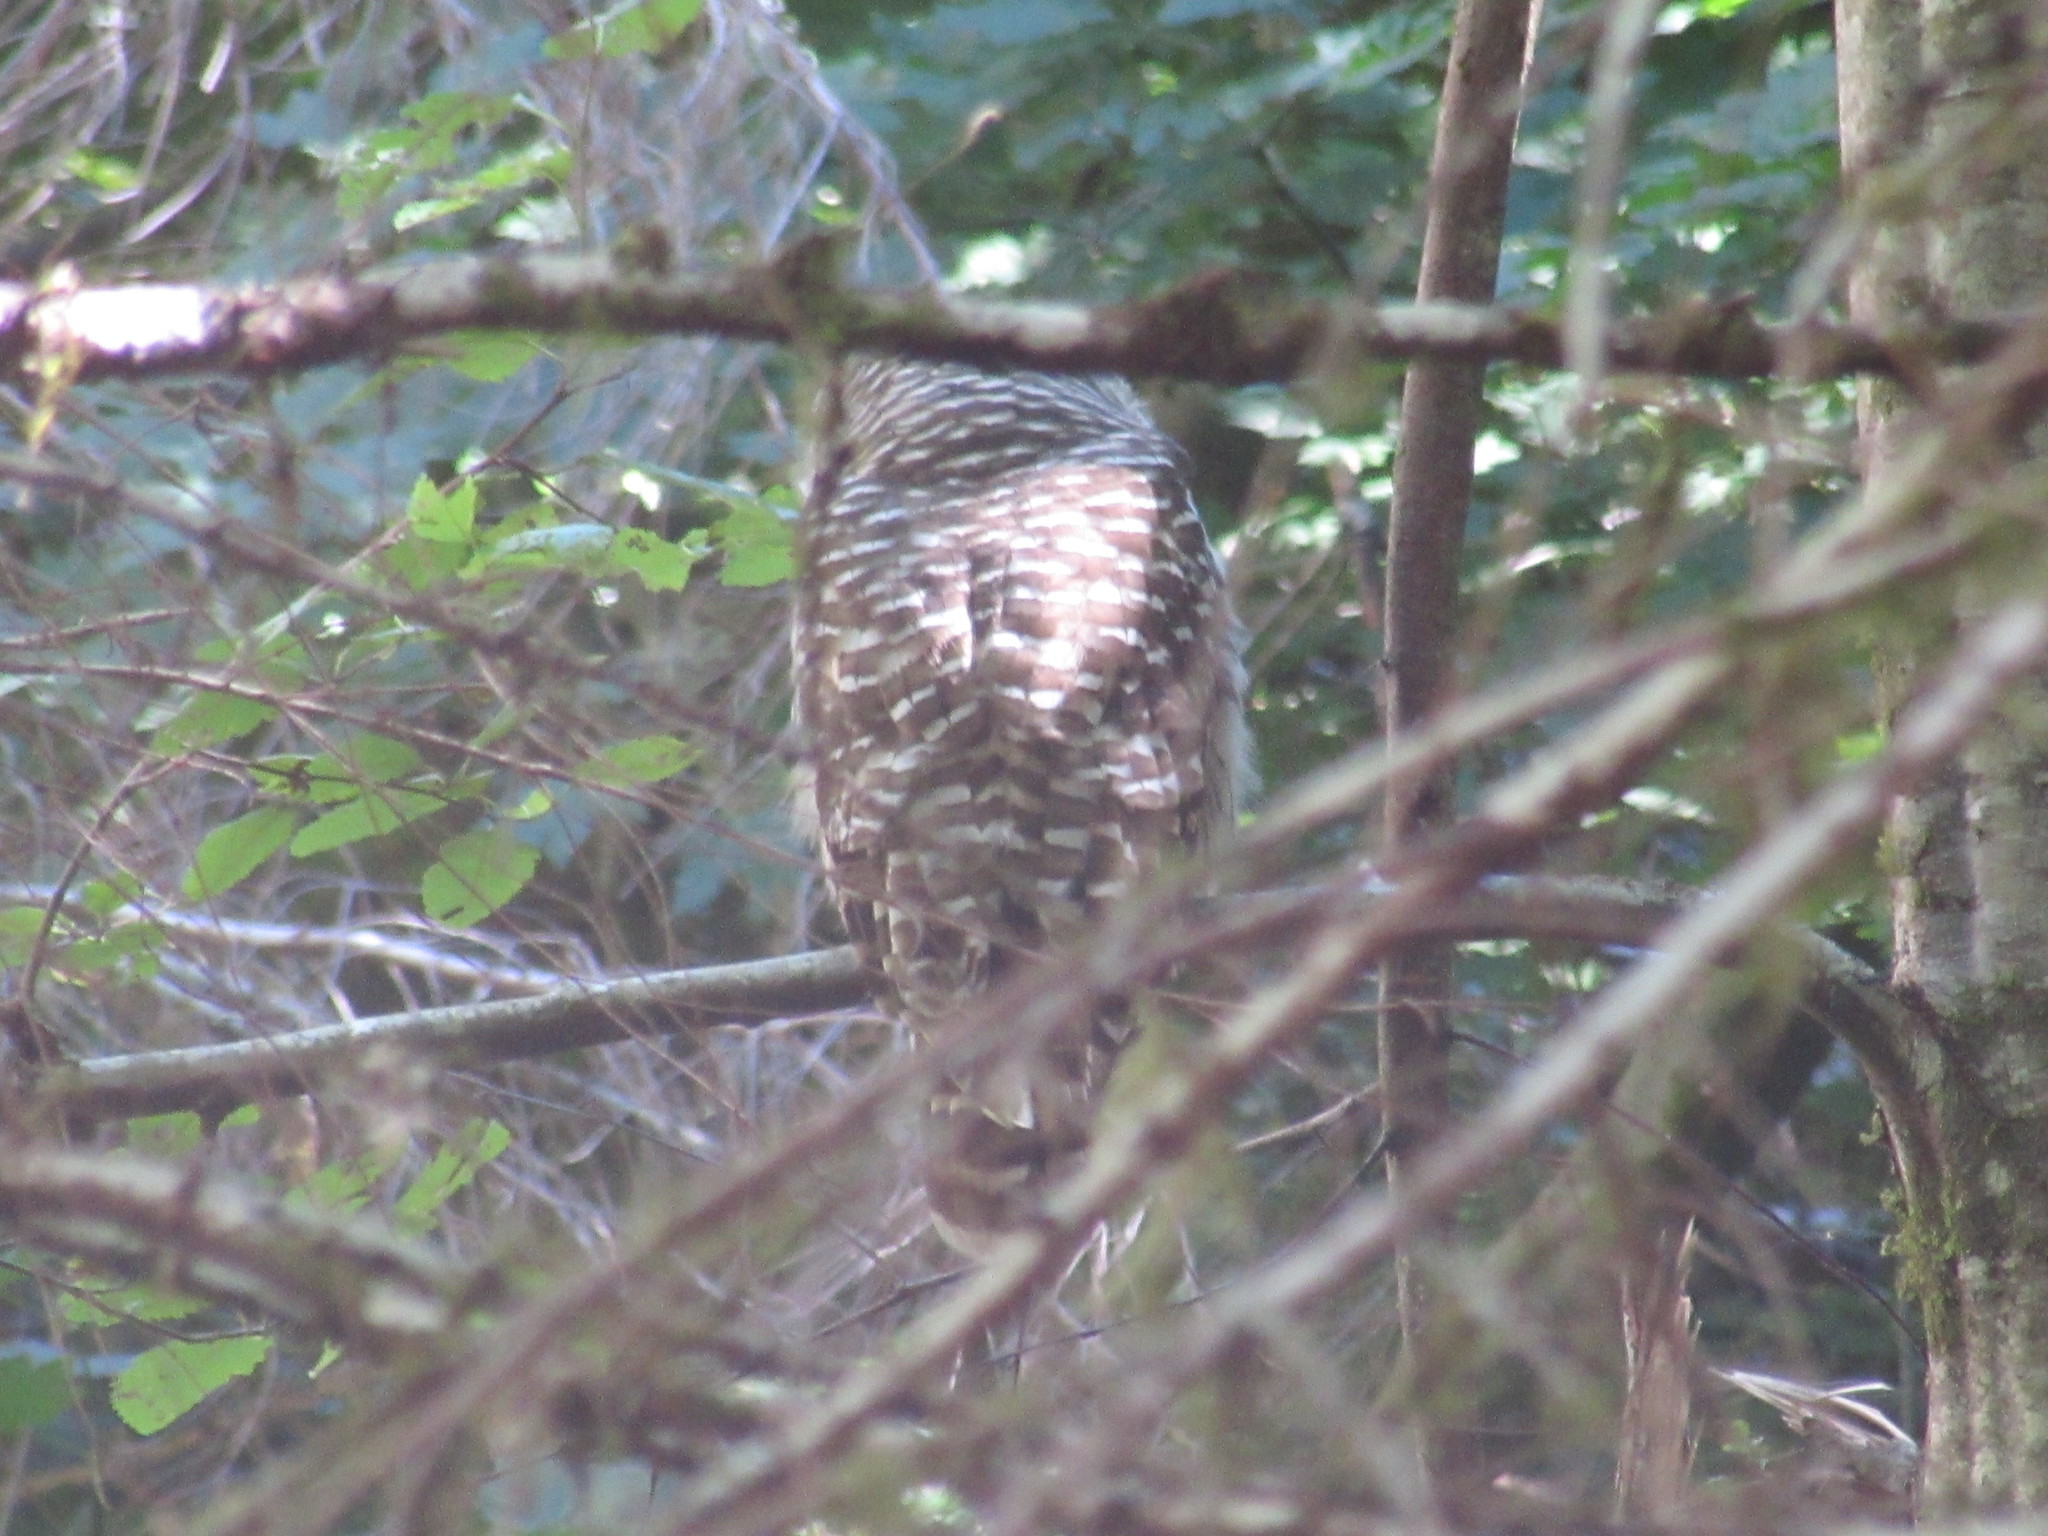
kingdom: Animalia
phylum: Chordata
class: Aves
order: Strigiformes
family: Strigidae
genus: Strix
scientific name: Strix varia
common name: Barred owl
